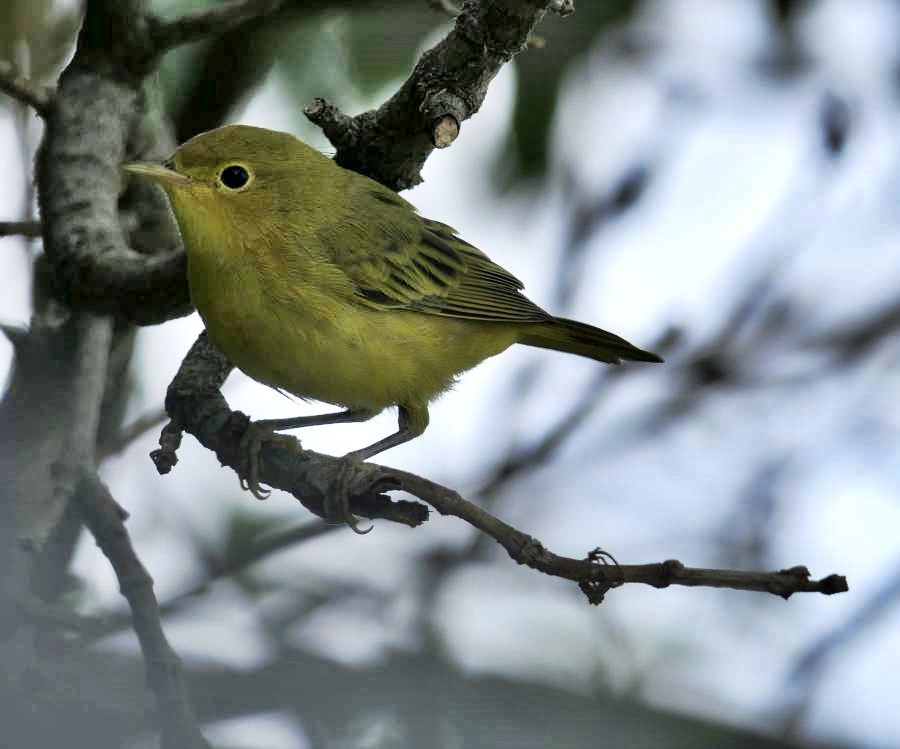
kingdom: Animalia
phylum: Chordata
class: Aves
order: Passeriformes
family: Parulidae
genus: Setophaga
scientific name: Setophaga petechia
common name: Yellow warbler
